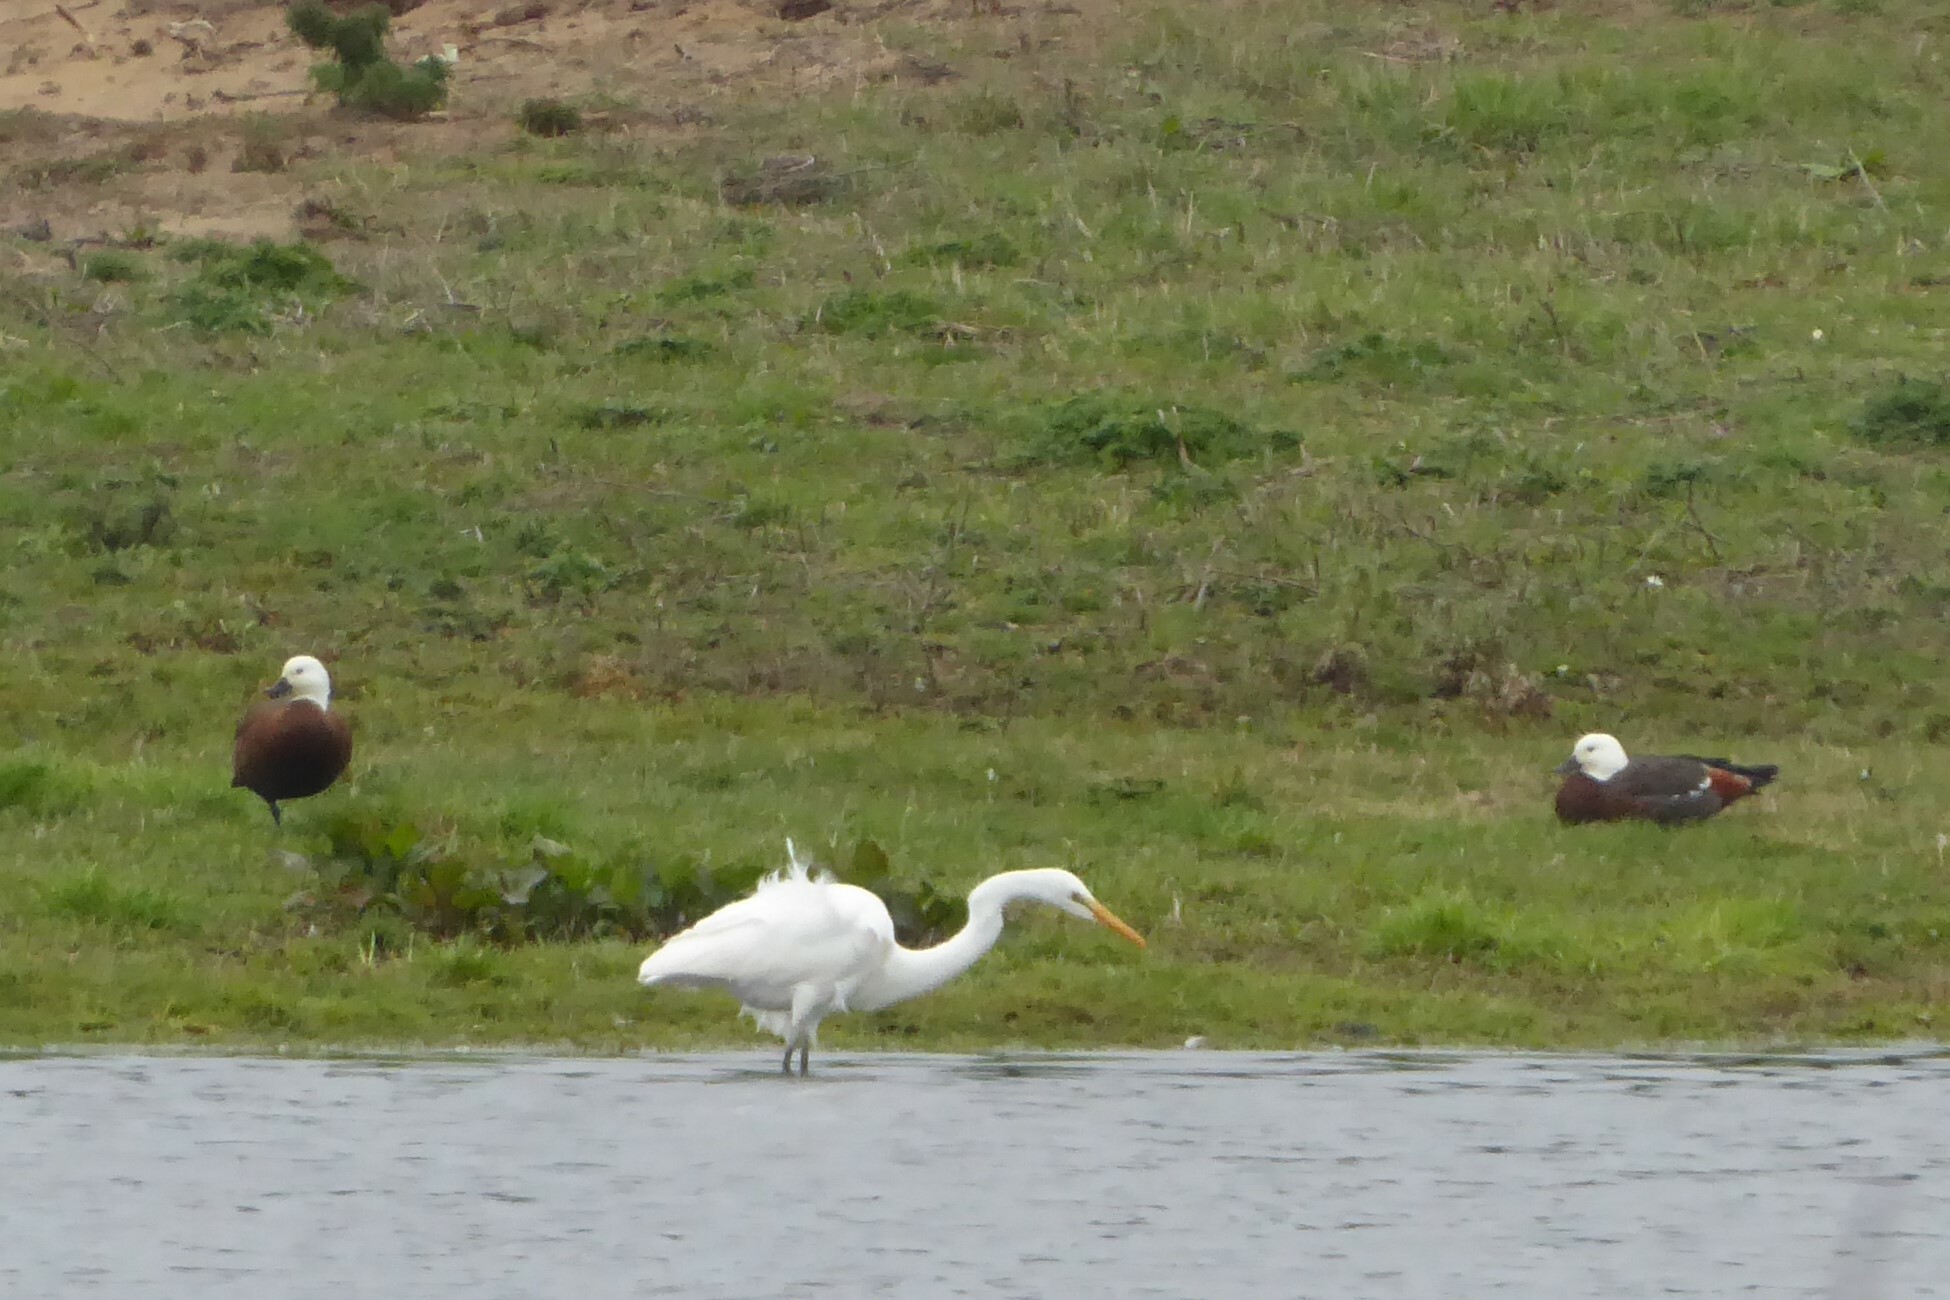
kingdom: Animalia
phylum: Chordata
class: Aves
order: Pelecaniformes
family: Ardeidae
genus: Ardea
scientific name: Ardea modesta
